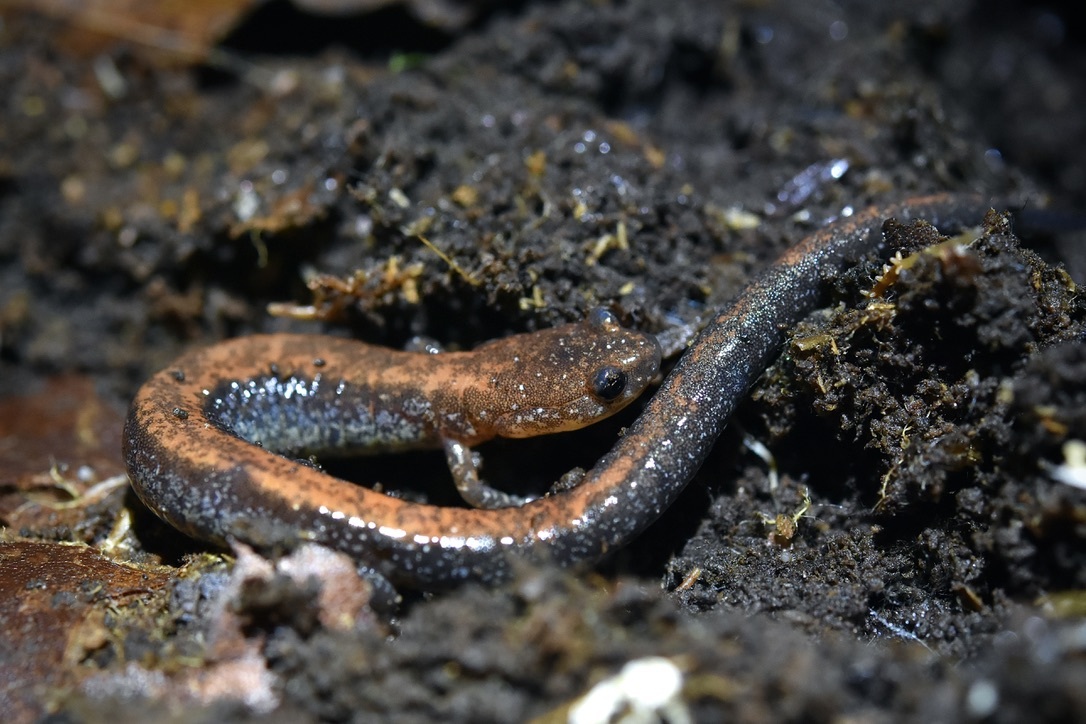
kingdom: Animalia
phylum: Chordata
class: Amphibia
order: Caudata
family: Plethodontidae
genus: Plethodon
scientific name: Plethodon cinereus
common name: Redback salamander
